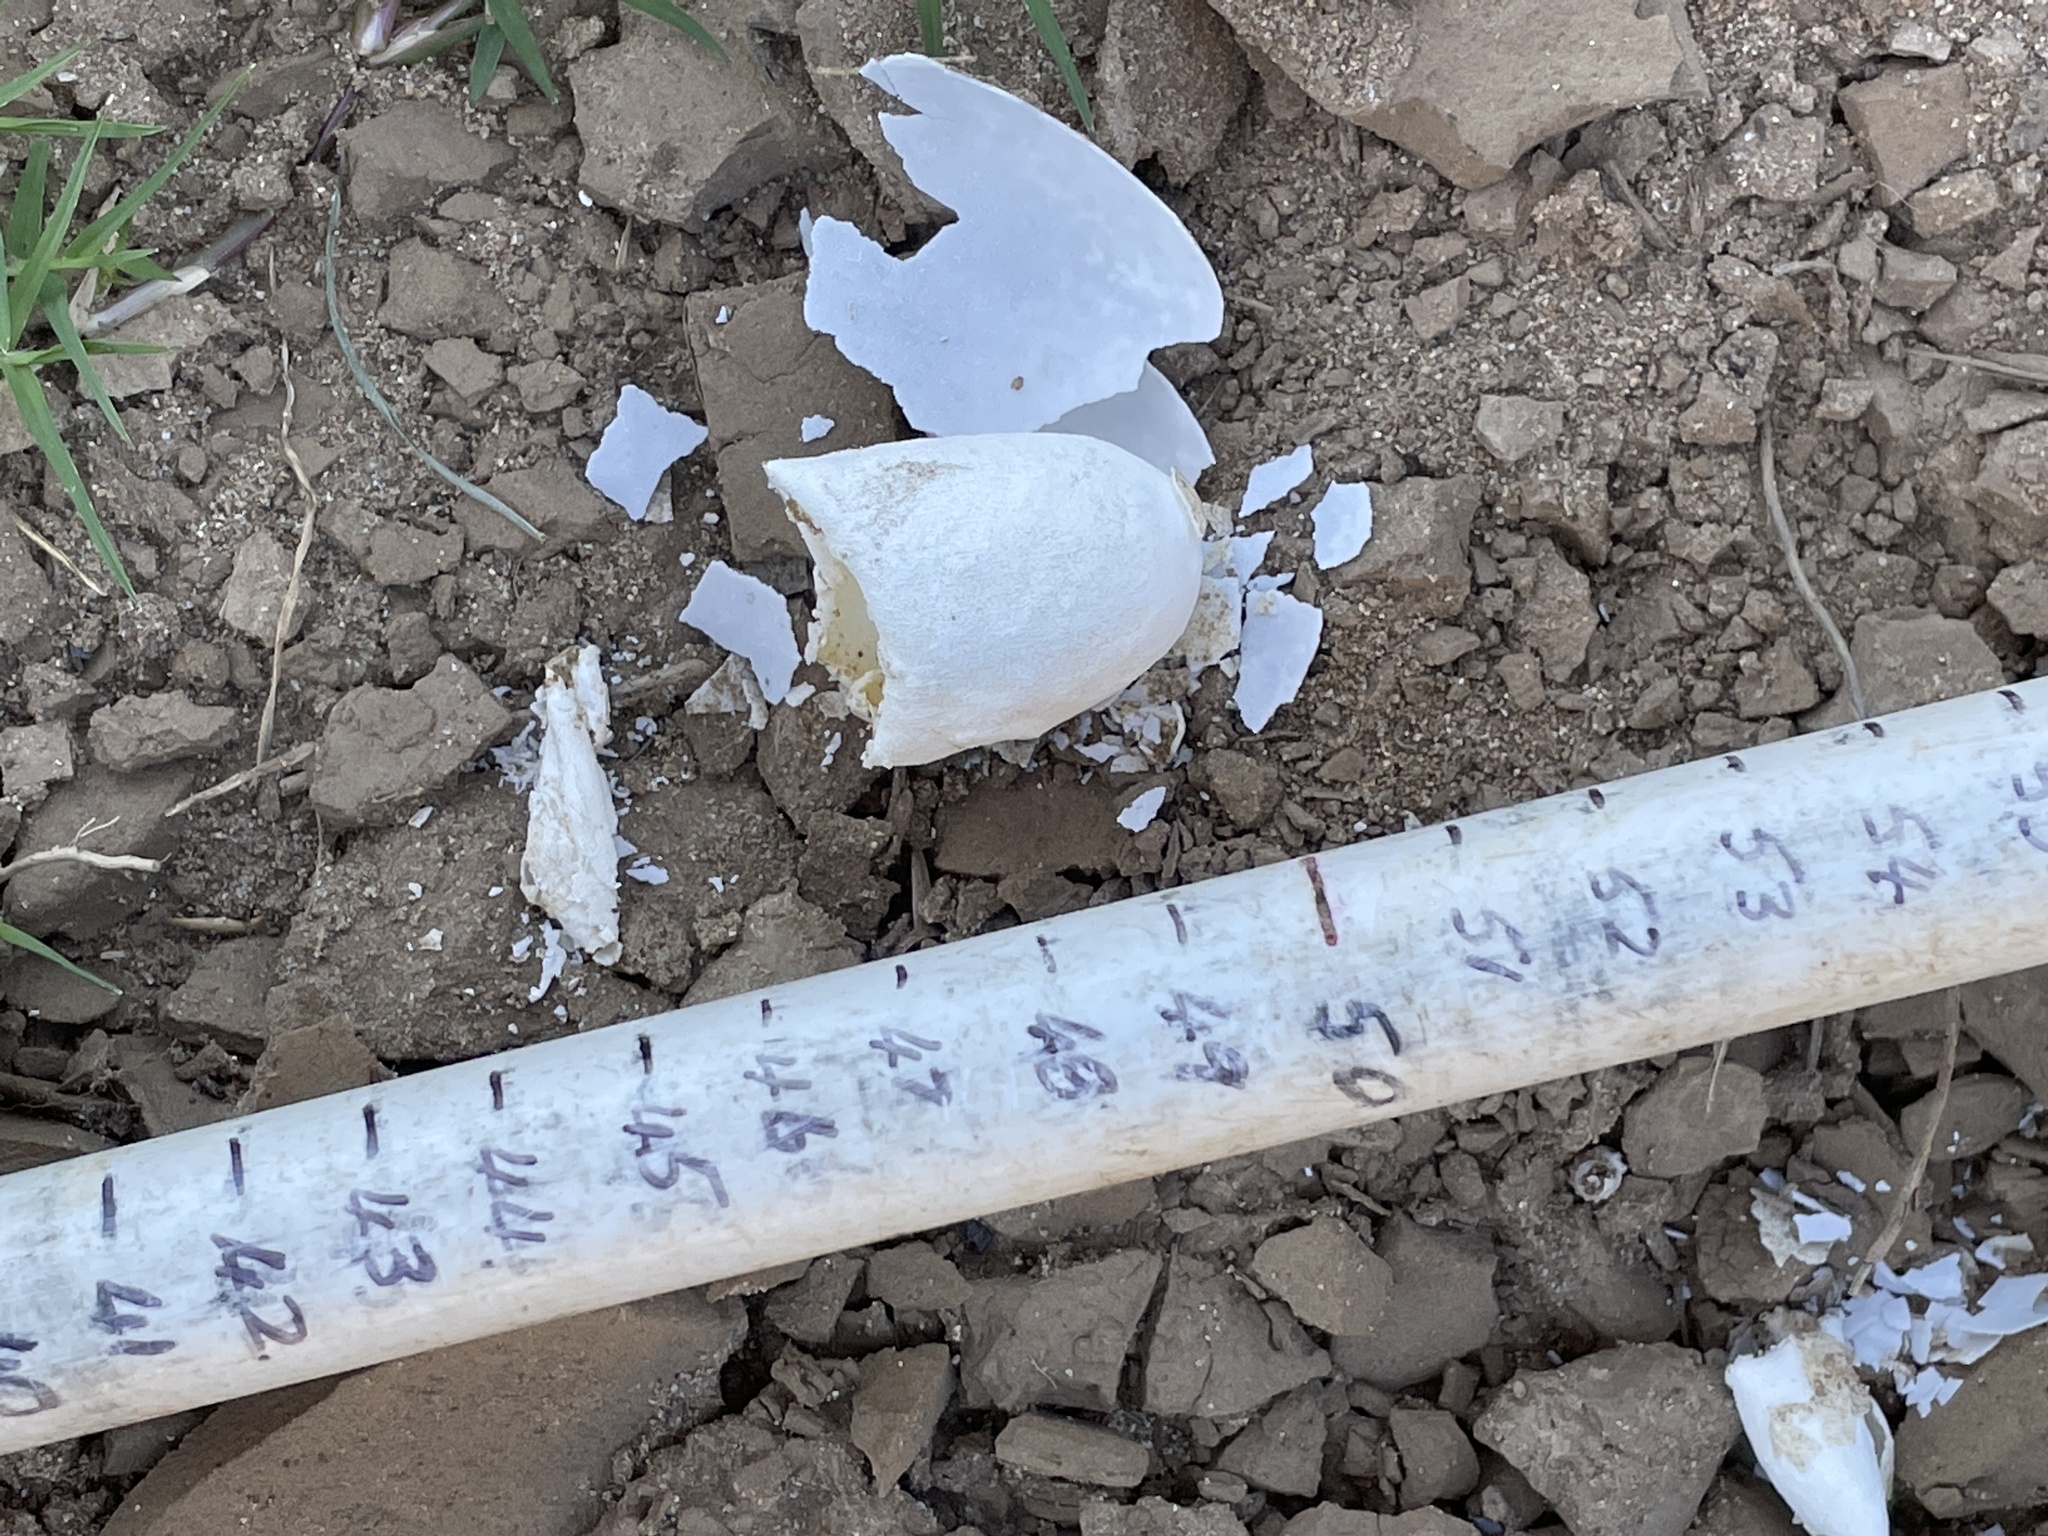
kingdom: Animalia
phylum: Chordata
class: Testudines
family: Chelidae
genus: Elseya
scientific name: Elseya albagula
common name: White-throated snapping turtle
